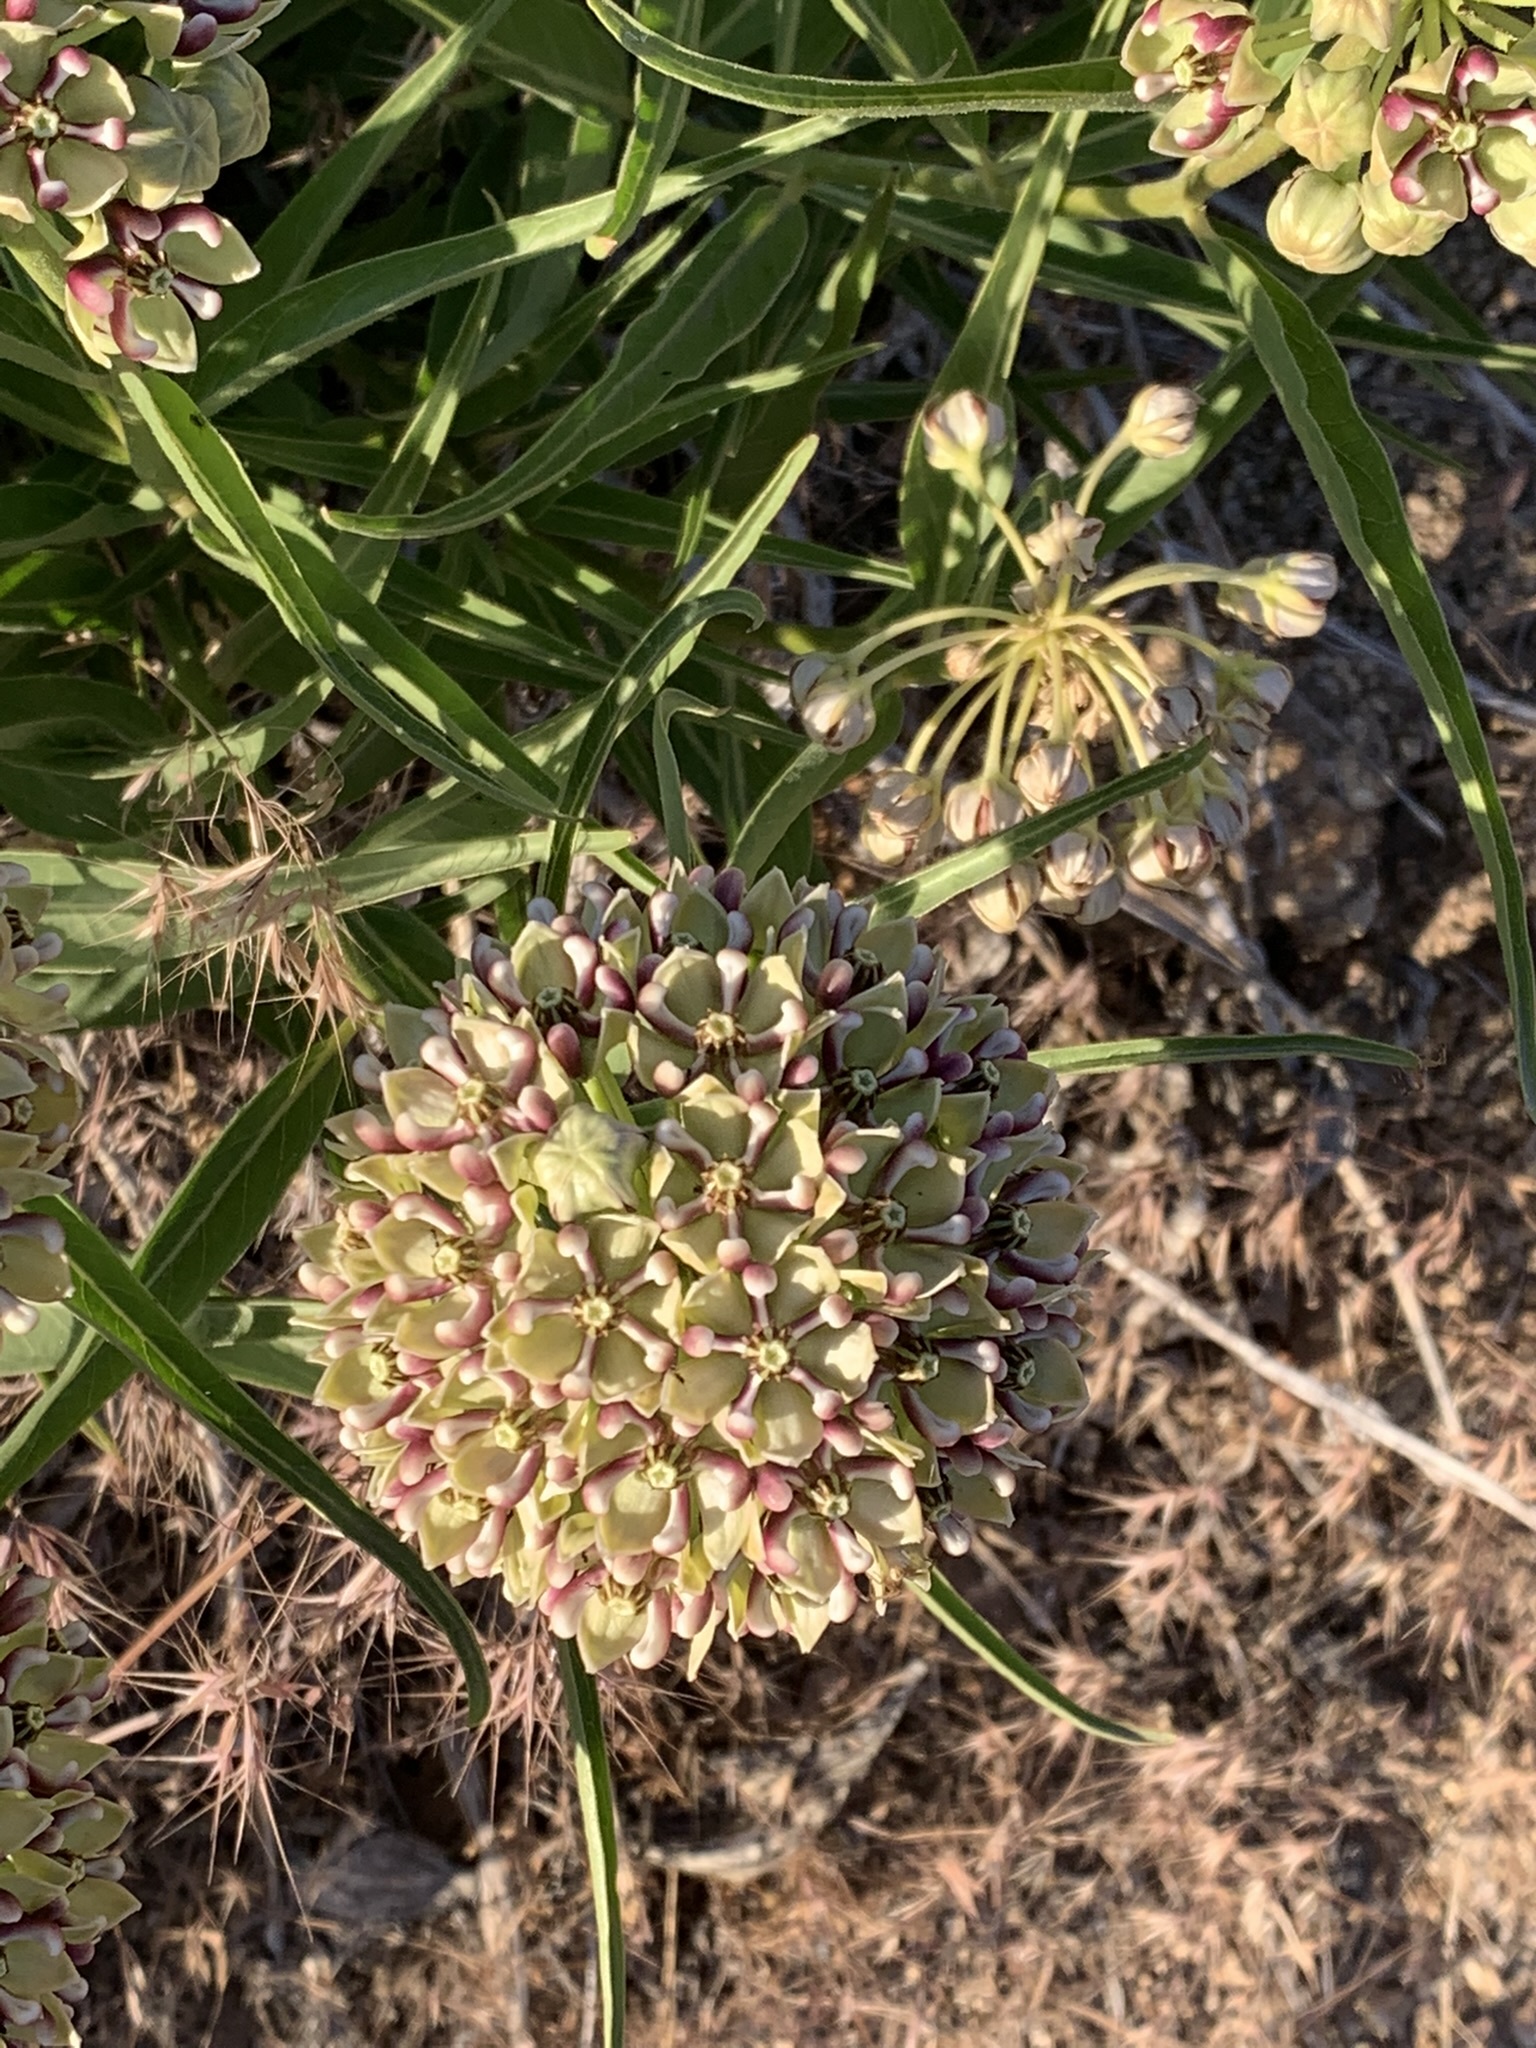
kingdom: Plantae
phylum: Tracheophyta
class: Magnoliopsida
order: Gentianales
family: Apocynaceae
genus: Asclepias
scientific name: Asclepias asperula
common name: Antelope horns
